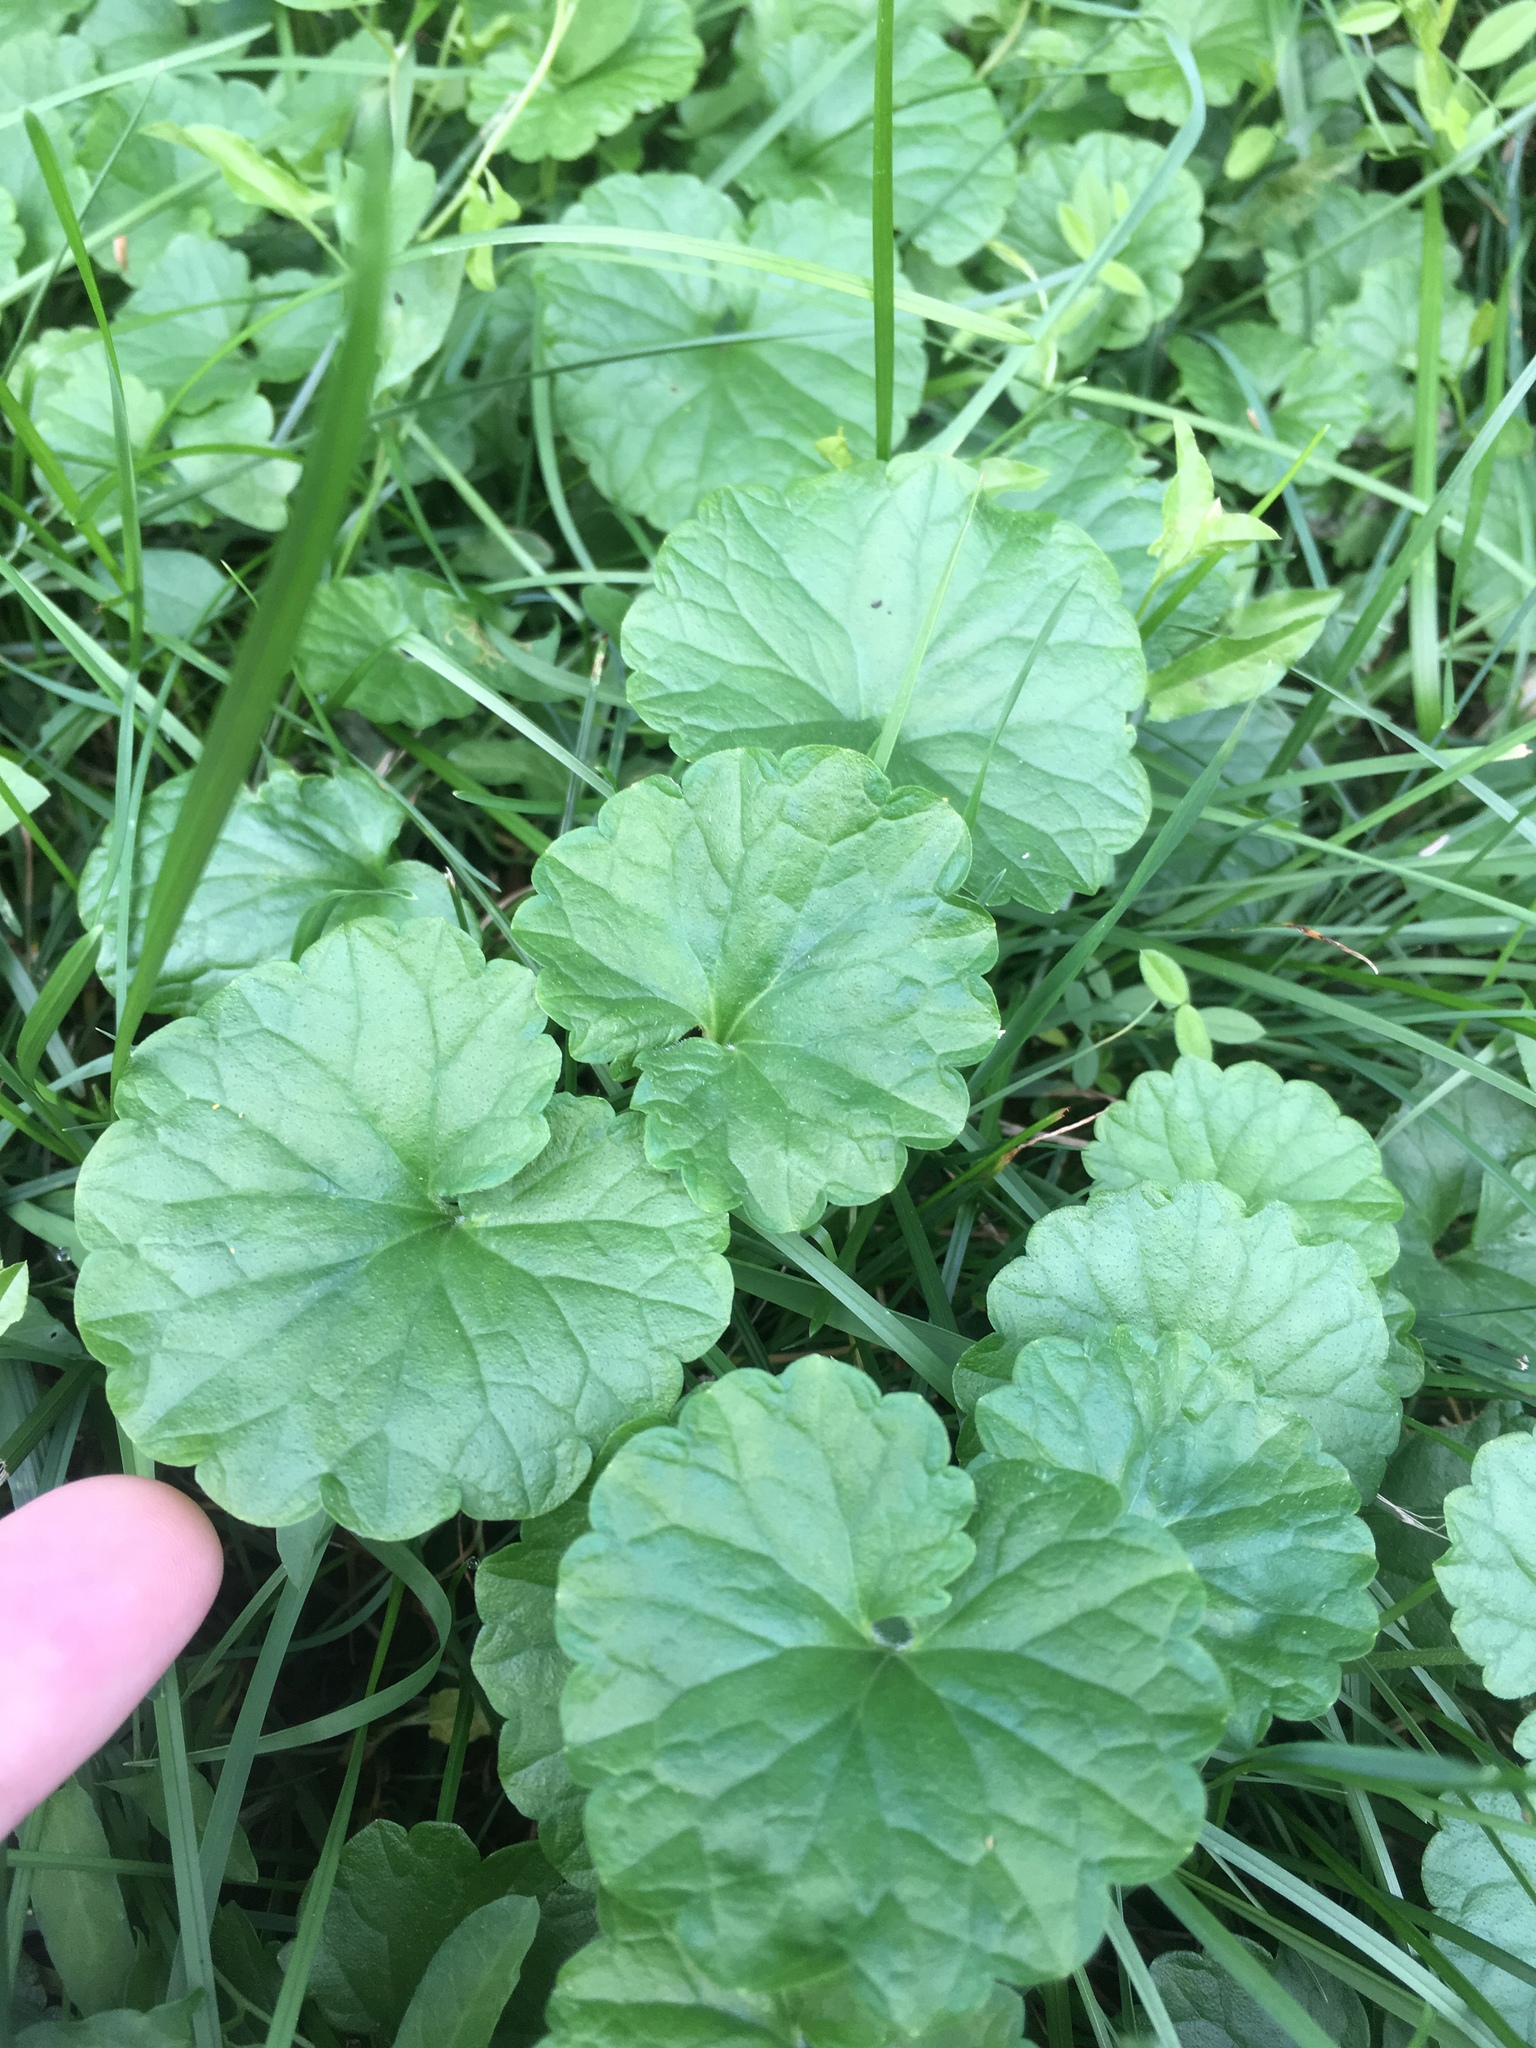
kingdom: Plantae
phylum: Tracheophyta
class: Magnoliopsida
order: Lamiales
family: Lamiaceae
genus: Glechoma
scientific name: Glechoma hederacea
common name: Ground ivy
